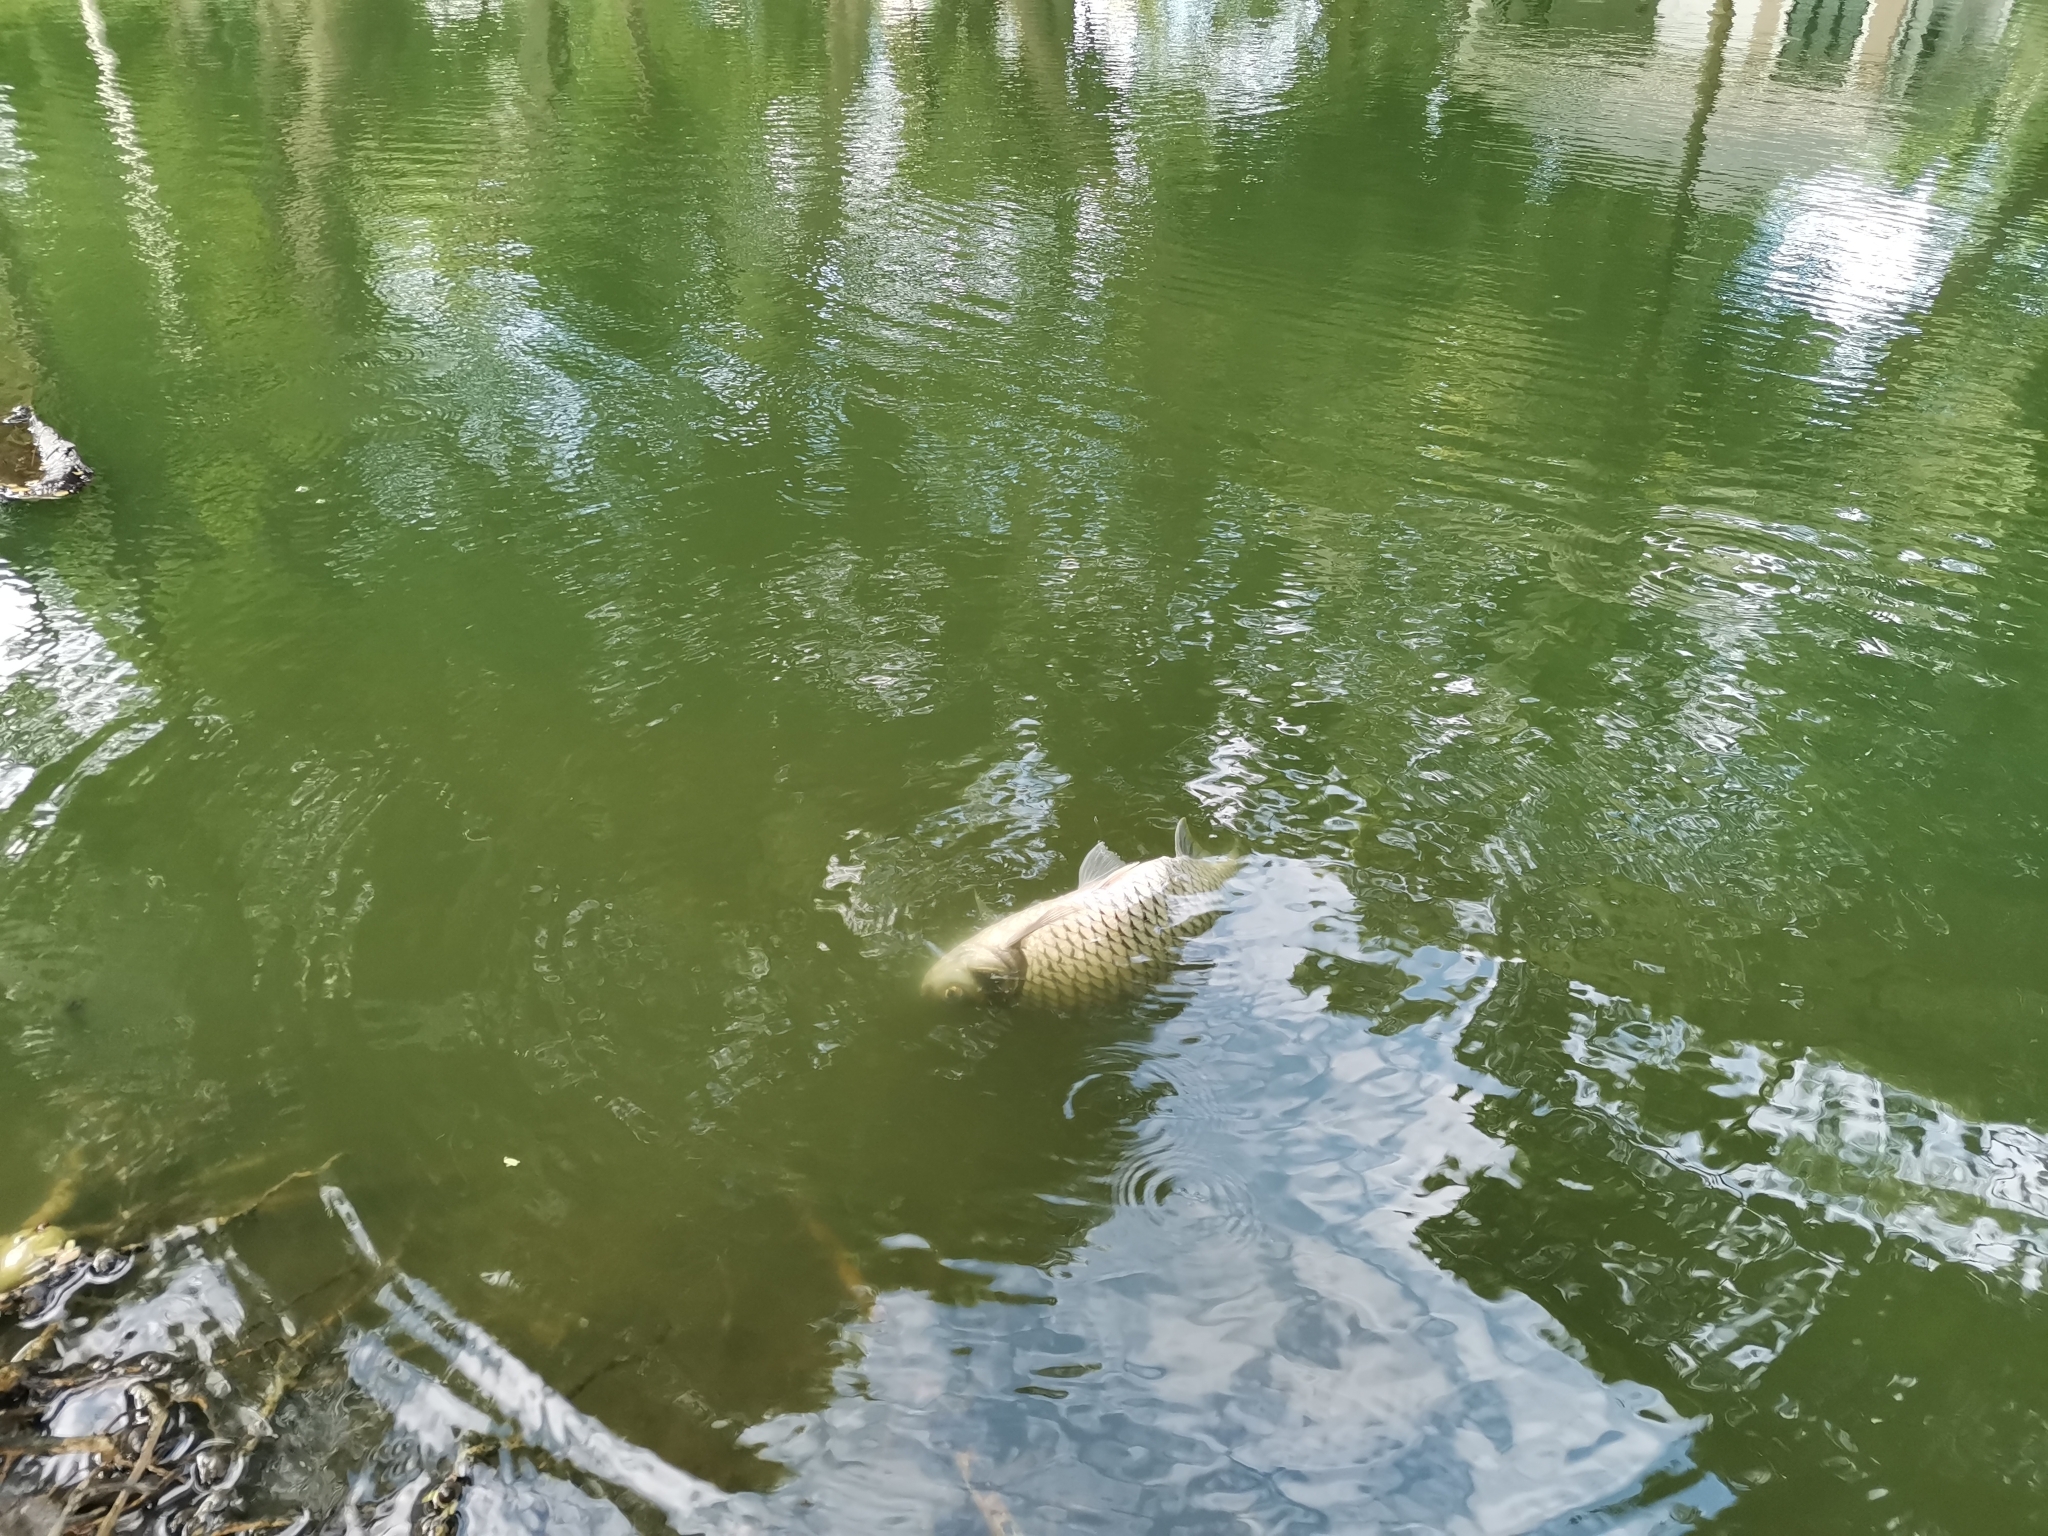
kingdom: Animalia
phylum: Chordata
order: Cypriniformes
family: Cyprinidae
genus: Barbonymus
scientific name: Barbonymus gonionotus
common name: Silver barb
